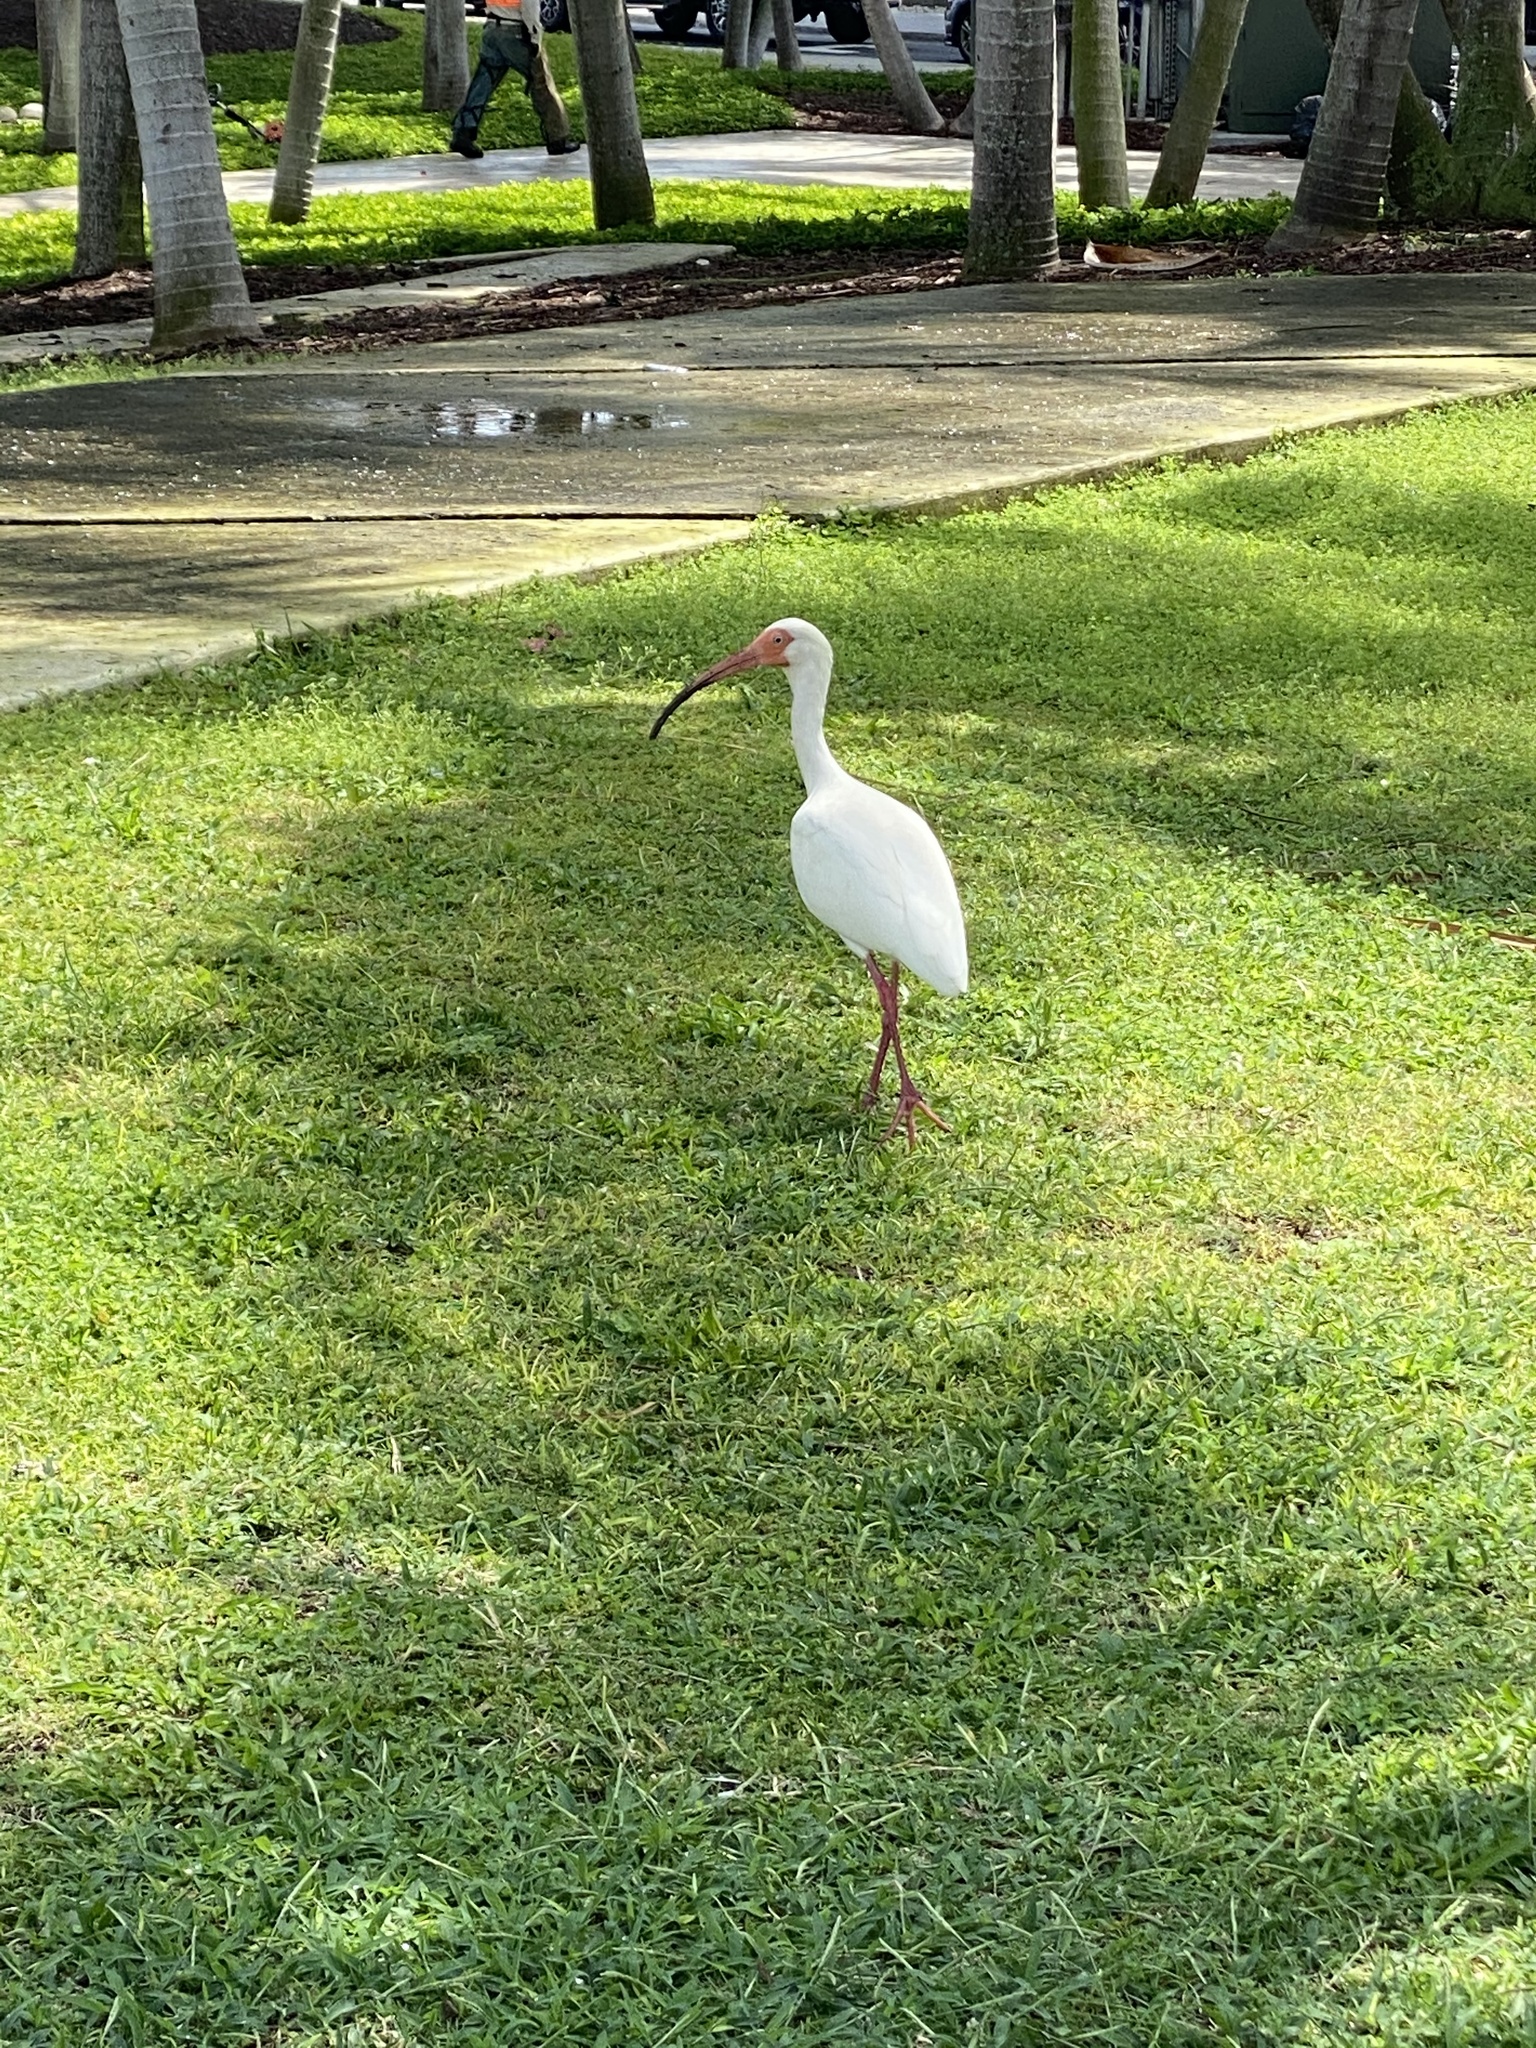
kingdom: Animalia
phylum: Chordata
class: Aves
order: Pelecaniformes
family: Threskiornithidae
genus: Eudocimus
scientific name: Eudocimus albus
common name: White ibis
